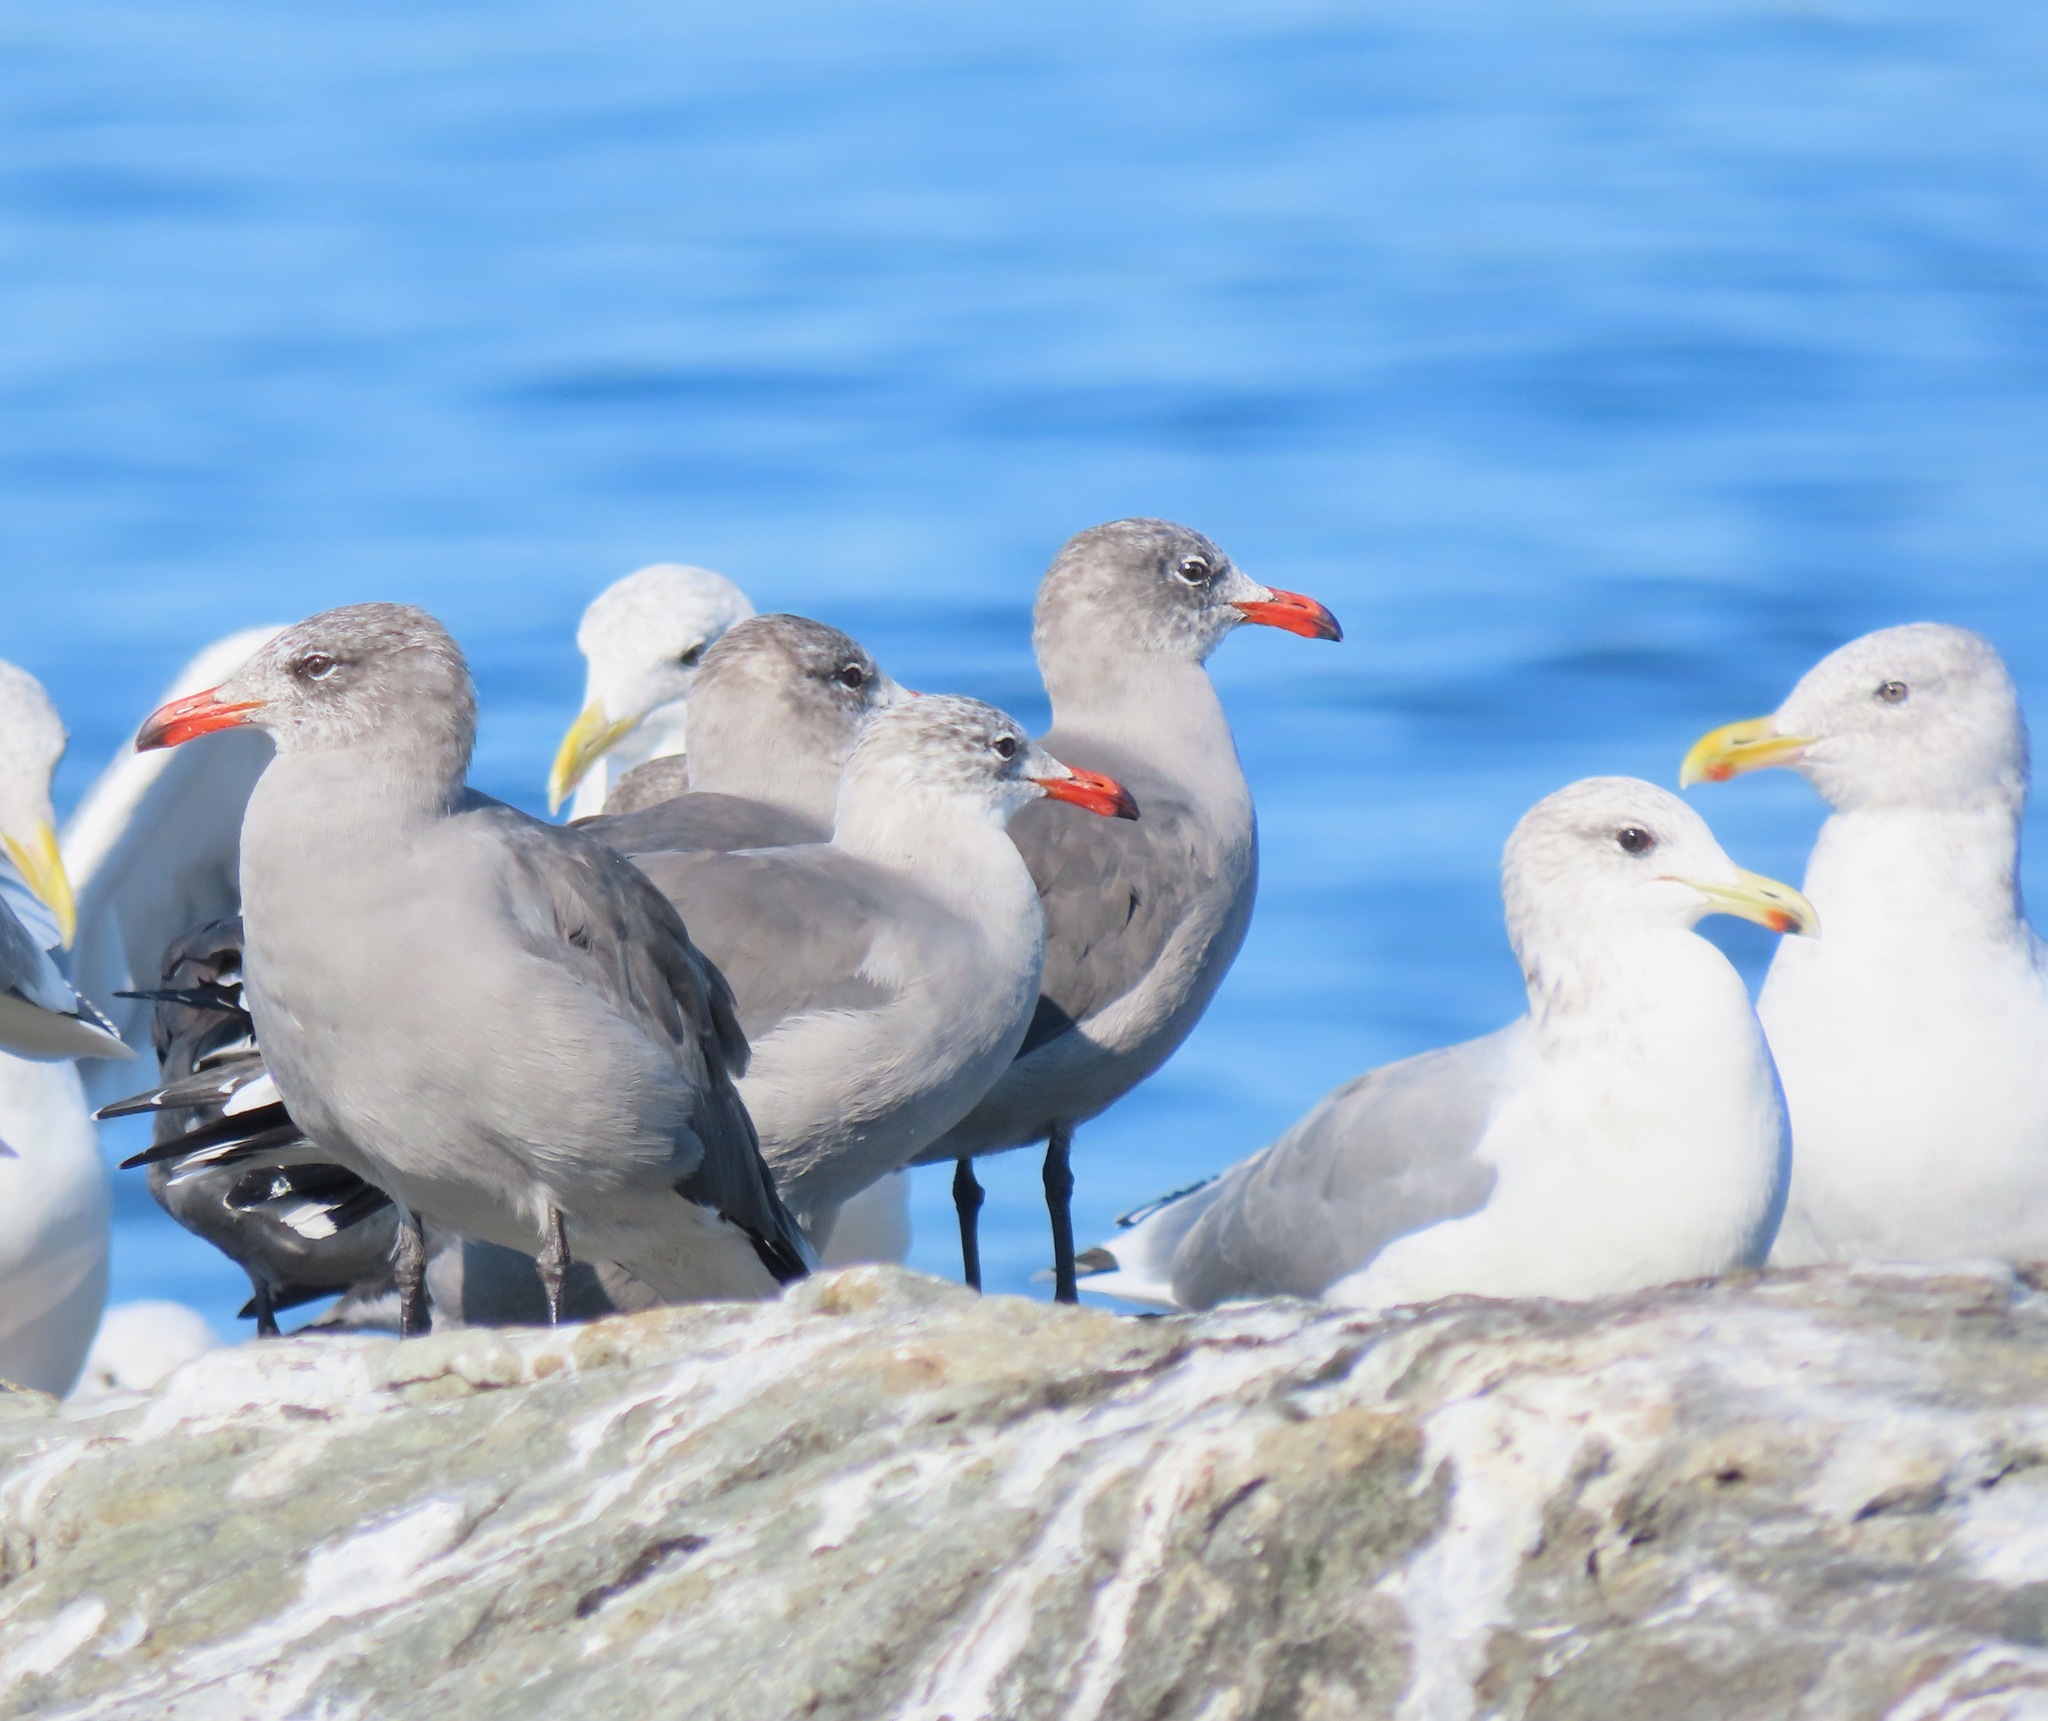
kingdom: Animalia
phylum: Chordata
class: Aves
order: Charadriiformes
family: Laridae
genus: Larus
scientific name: Larus heermanni
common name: Heermann's gull
